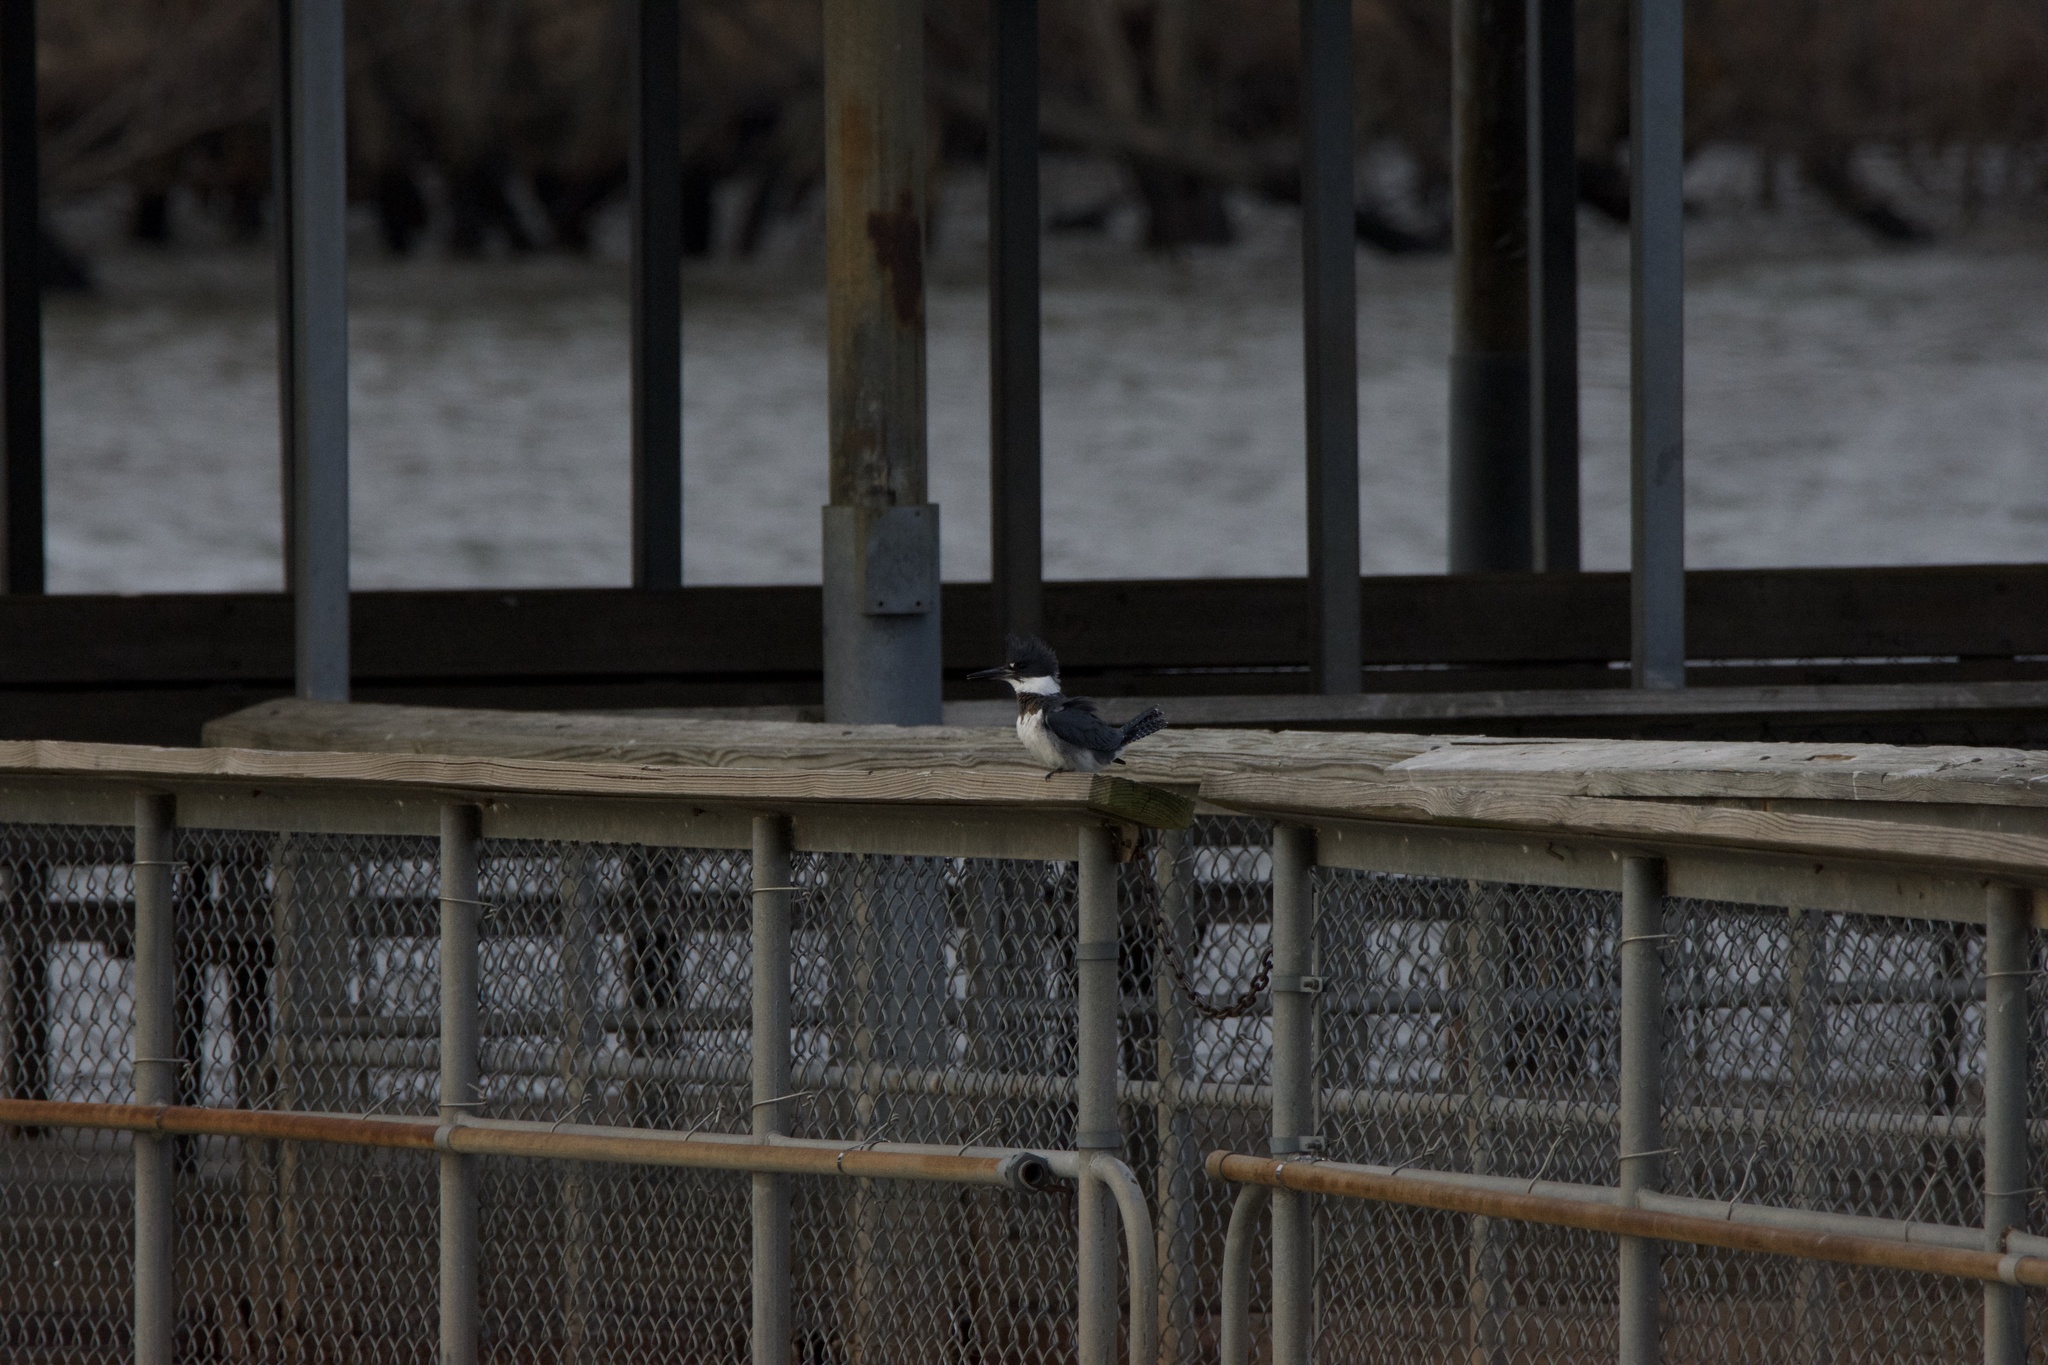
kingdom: Animalia
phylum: Chordata
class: Aves
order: Coraciiformes
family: Alcedinidae
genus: Megaceryle
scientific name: Megaceryle alcyon
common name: Belted kingfisher
